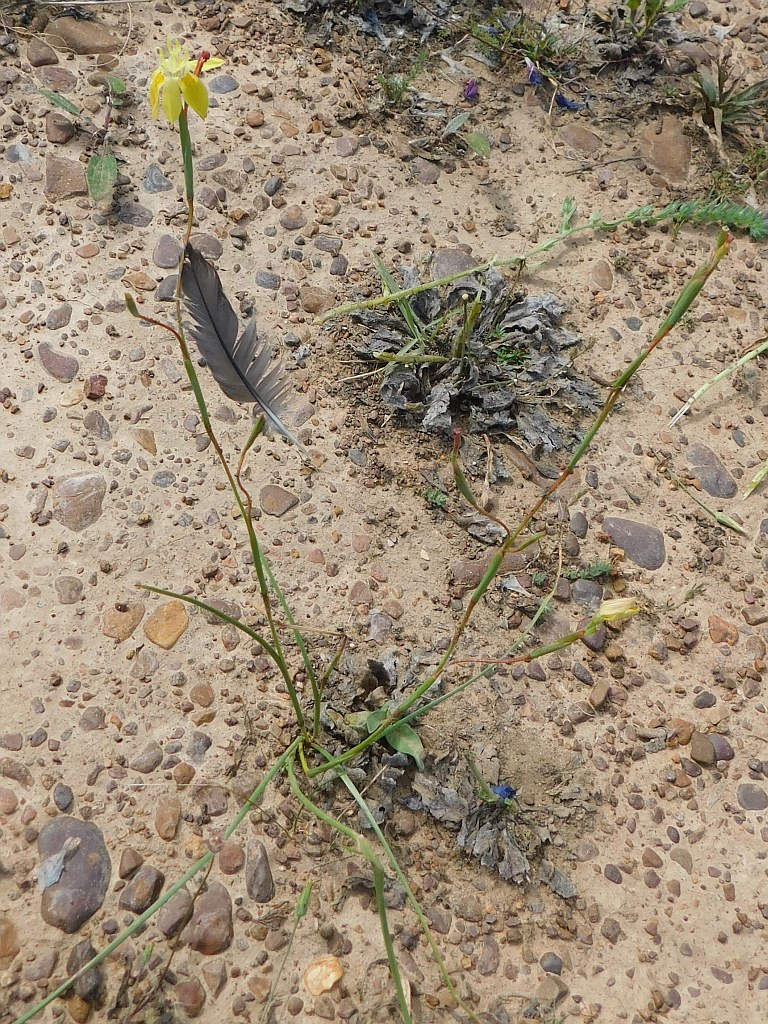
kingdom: Plantae
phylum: Tracheophyta
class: Liliopsida
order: Asparagales
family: Iridaceae
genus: Moraea
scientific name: Moraea bituminosa
